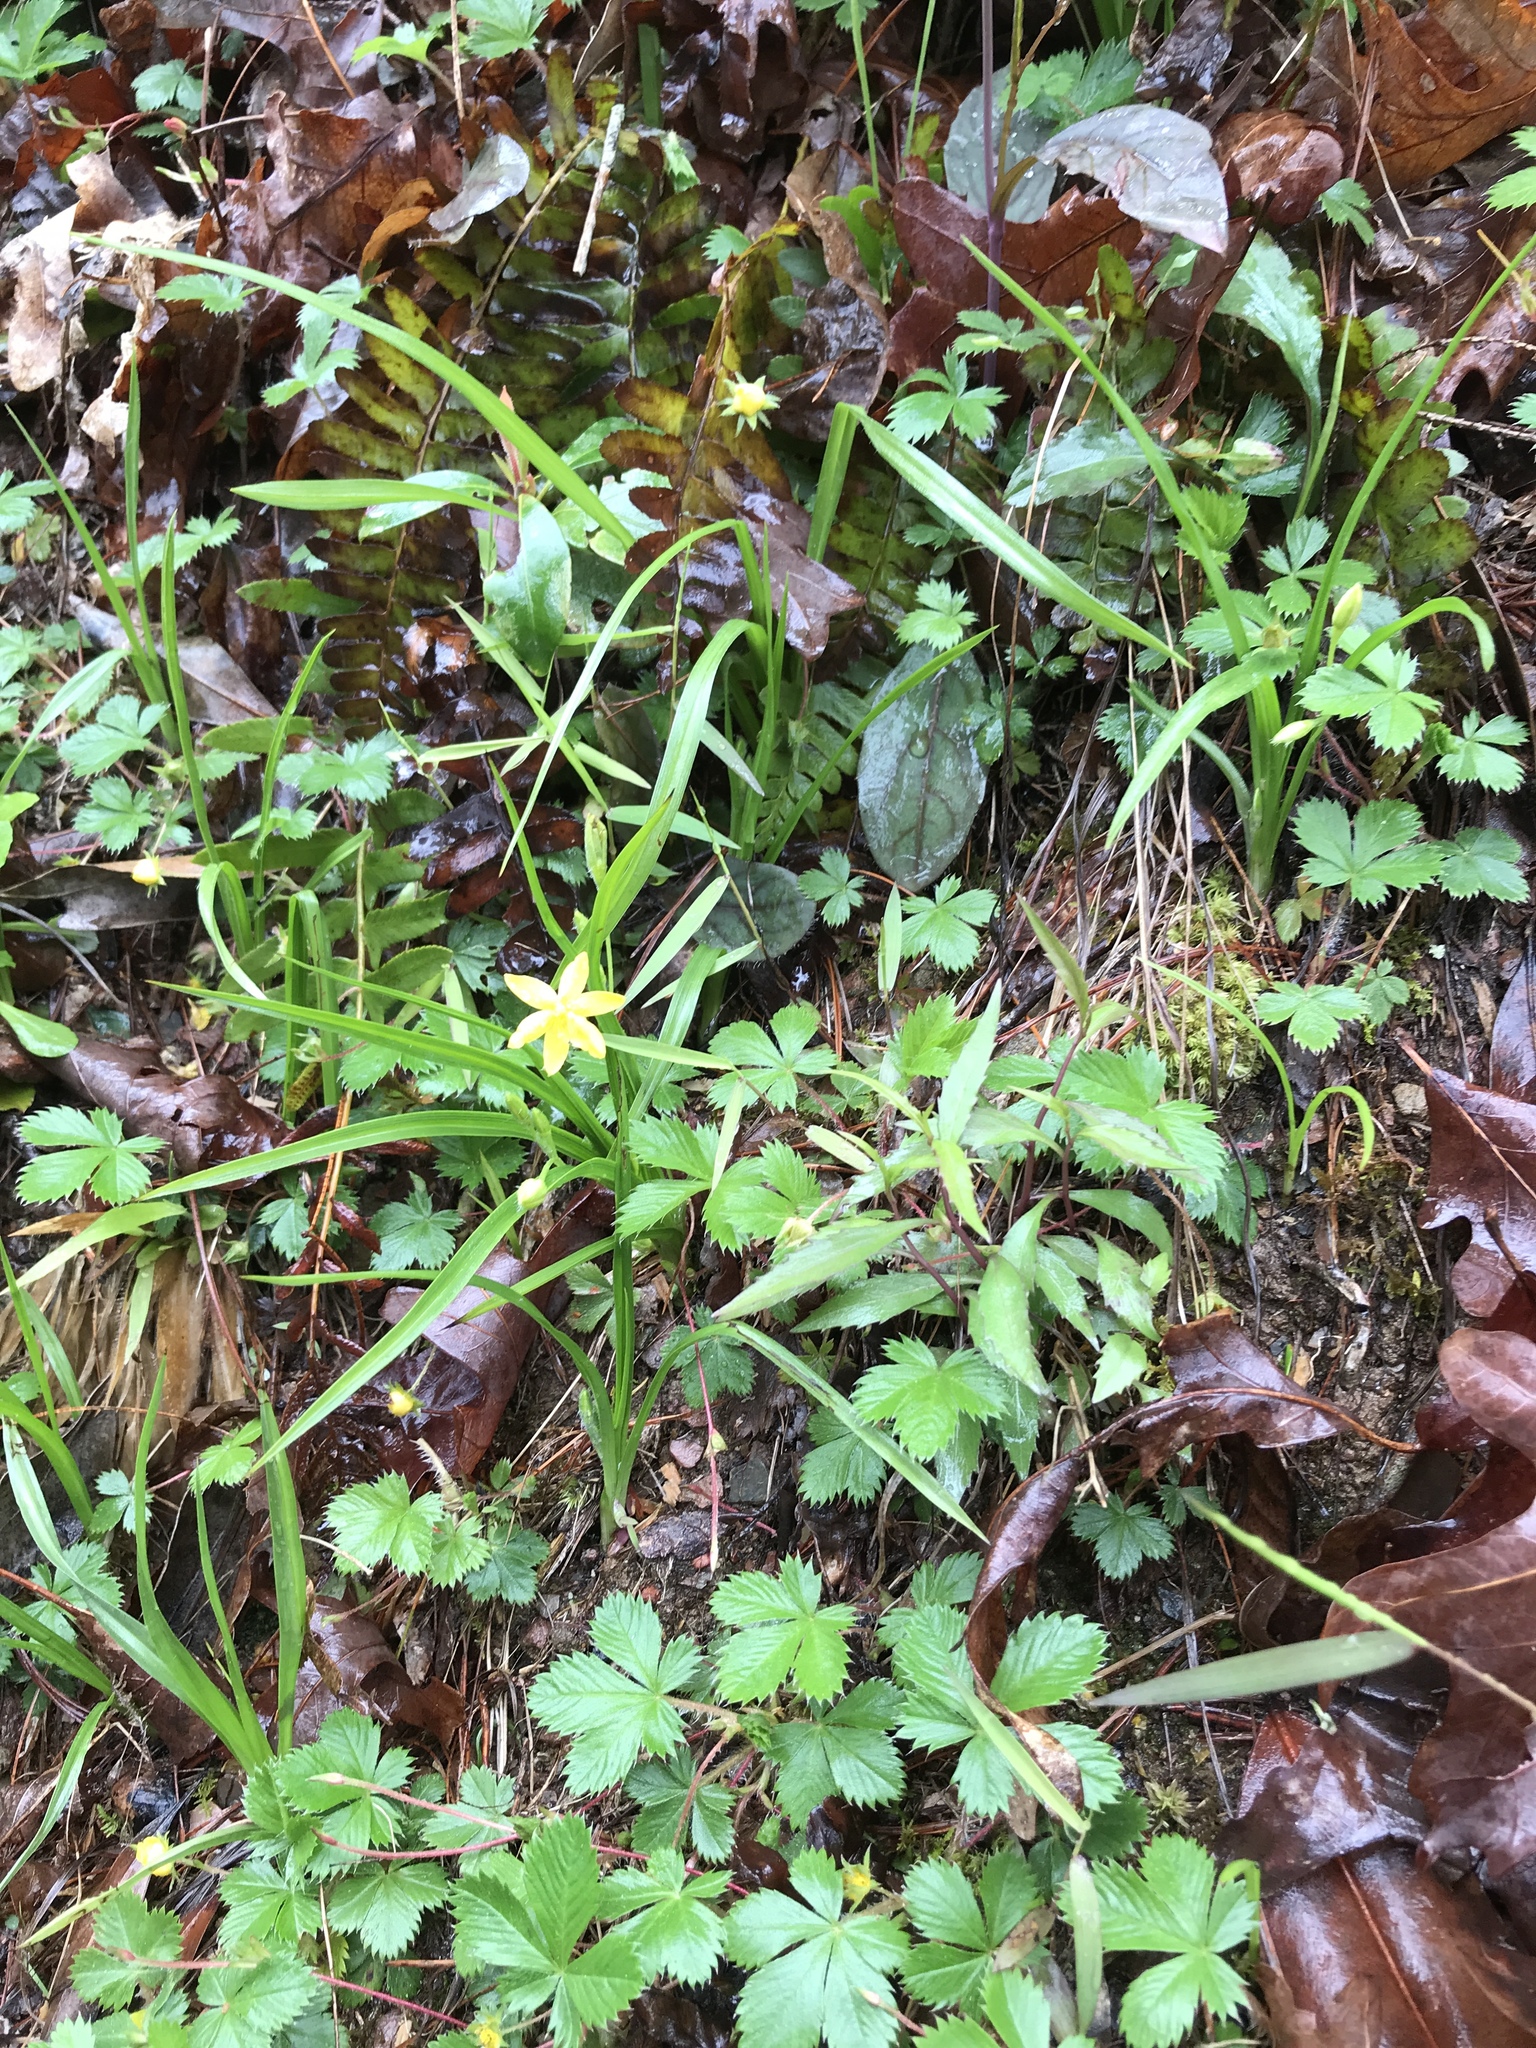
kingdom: Plantae
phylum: Tracheophyta
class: Liliopsida
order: Asparagales
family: Hypoxidaceae
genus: Hypoxis
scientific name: Hypoxis hirsuta
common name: Common goldstar
